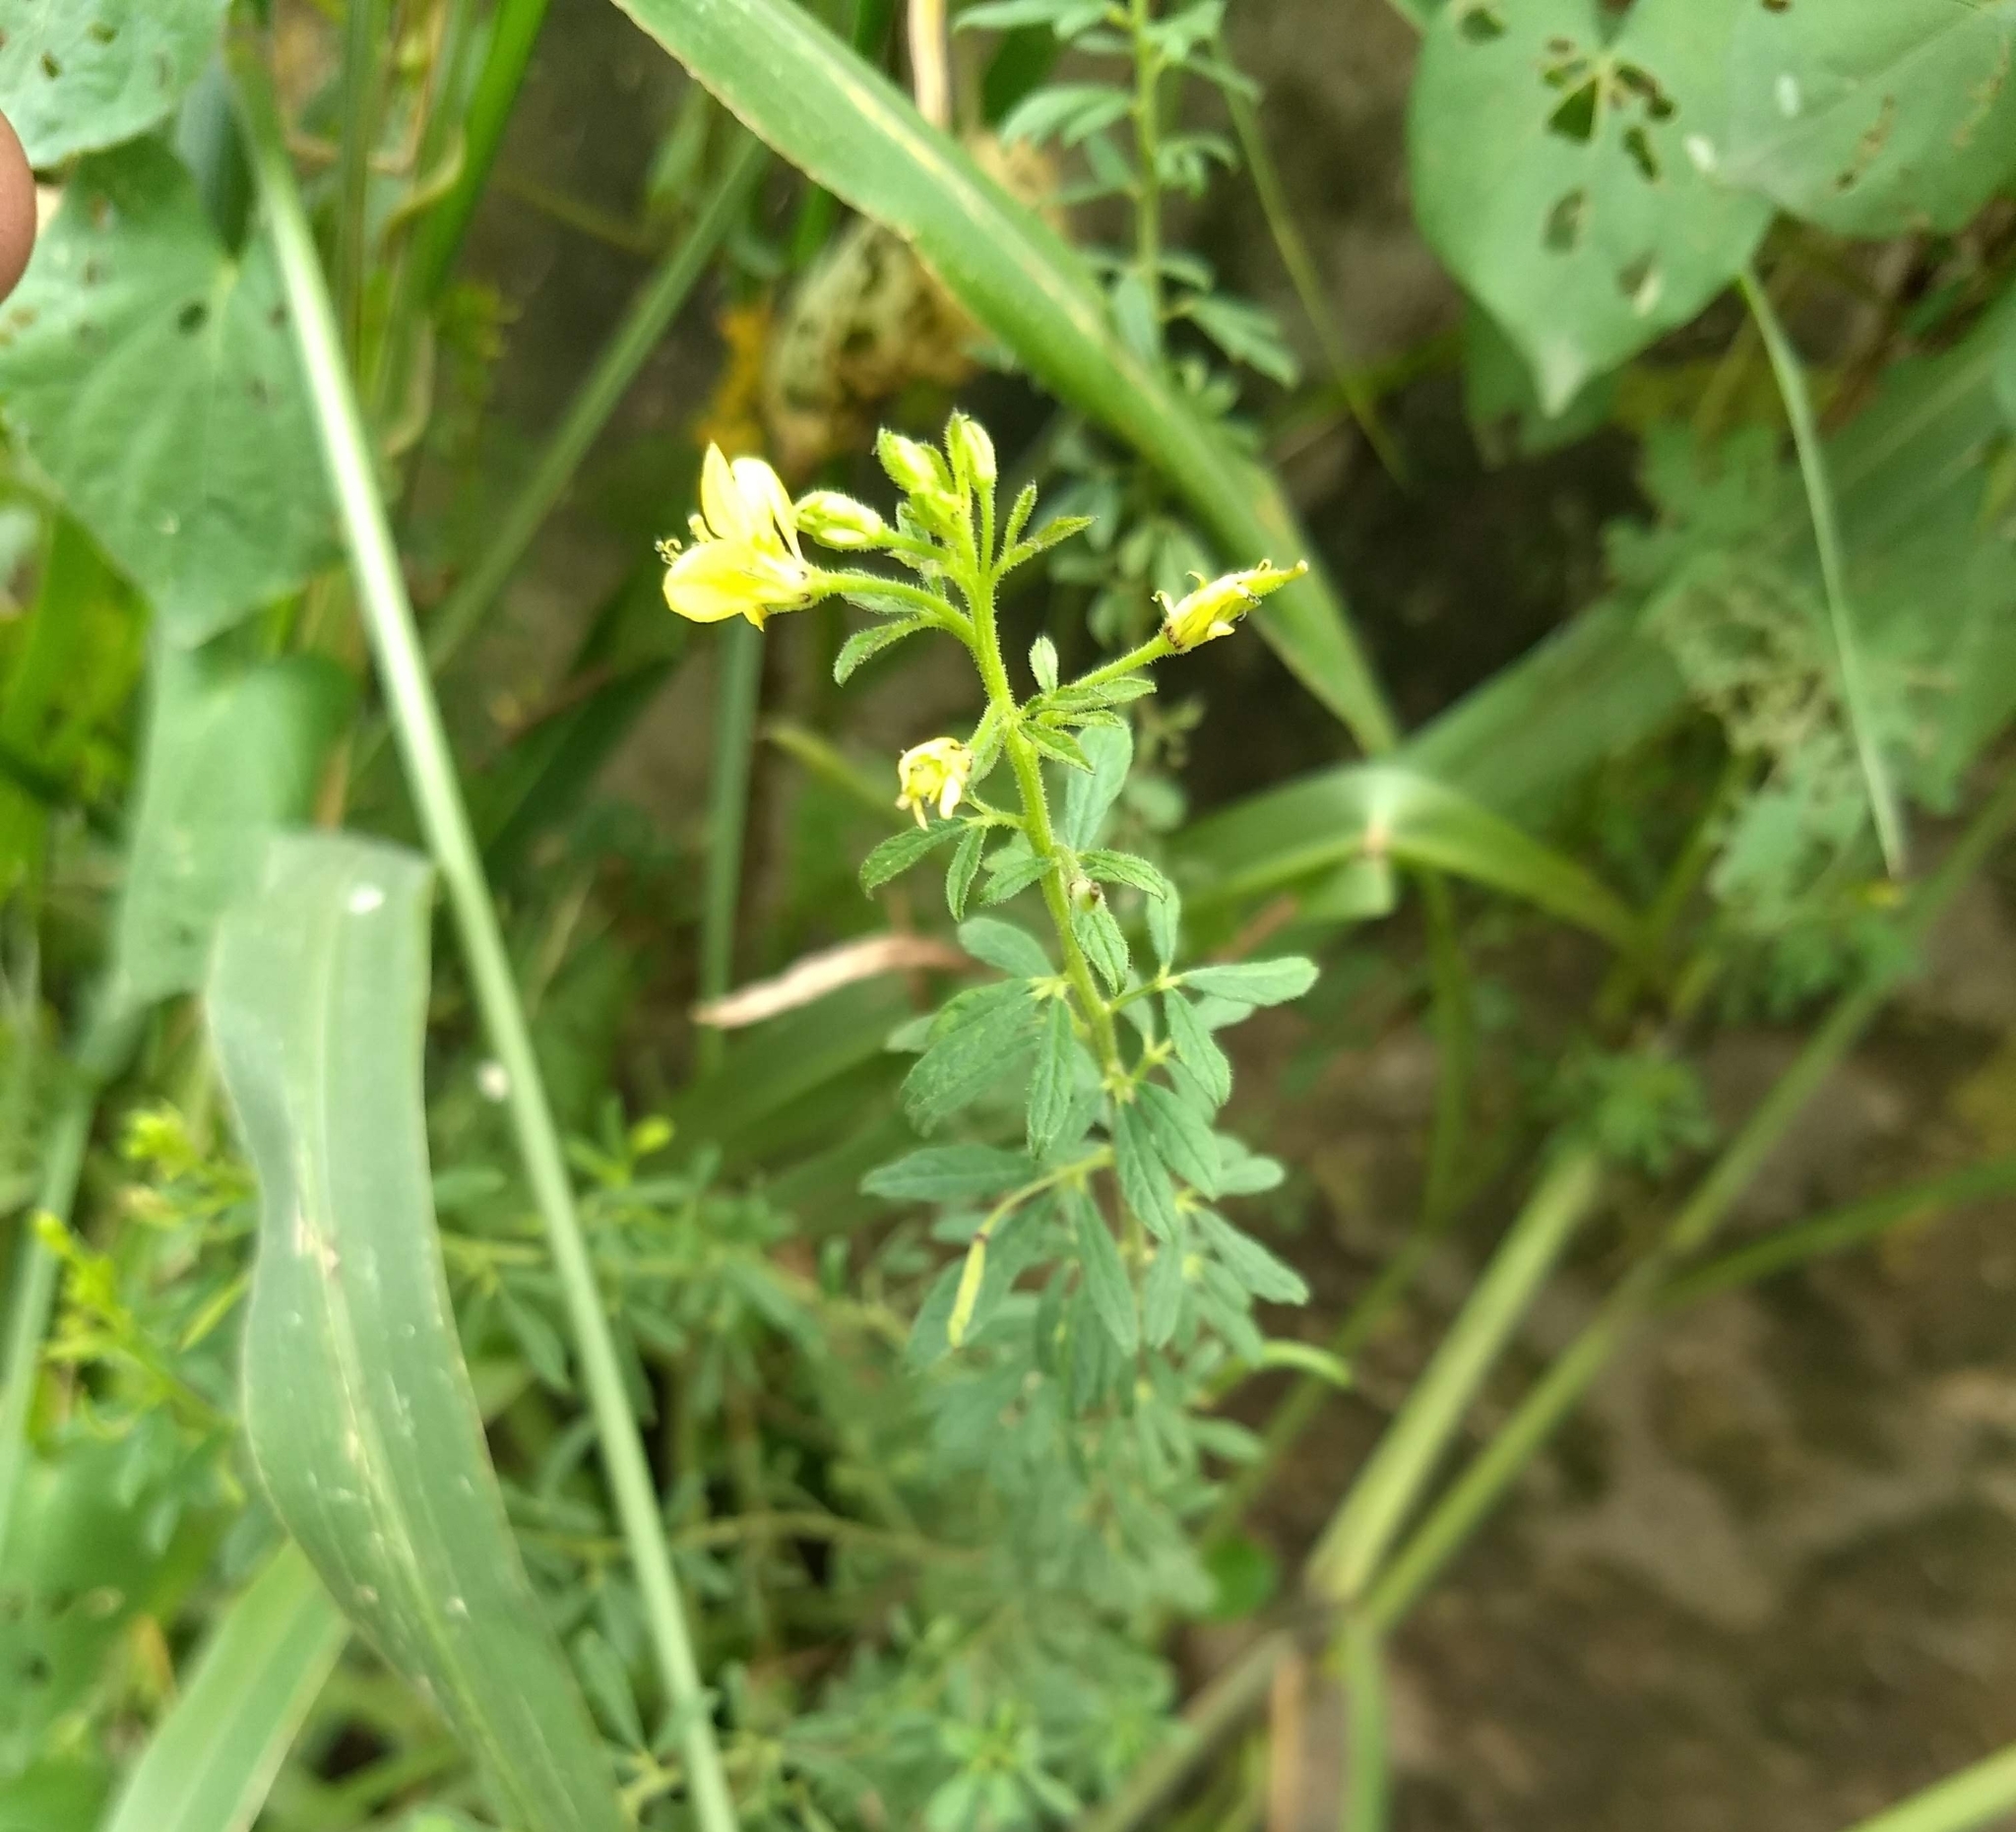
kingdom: Plantae
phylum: Tracheophyta
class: Magnoliopsida
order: Brassicales
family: Cleomaceae
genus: Arivela
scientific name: Arivela viscosa
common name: Asian spiderflower
